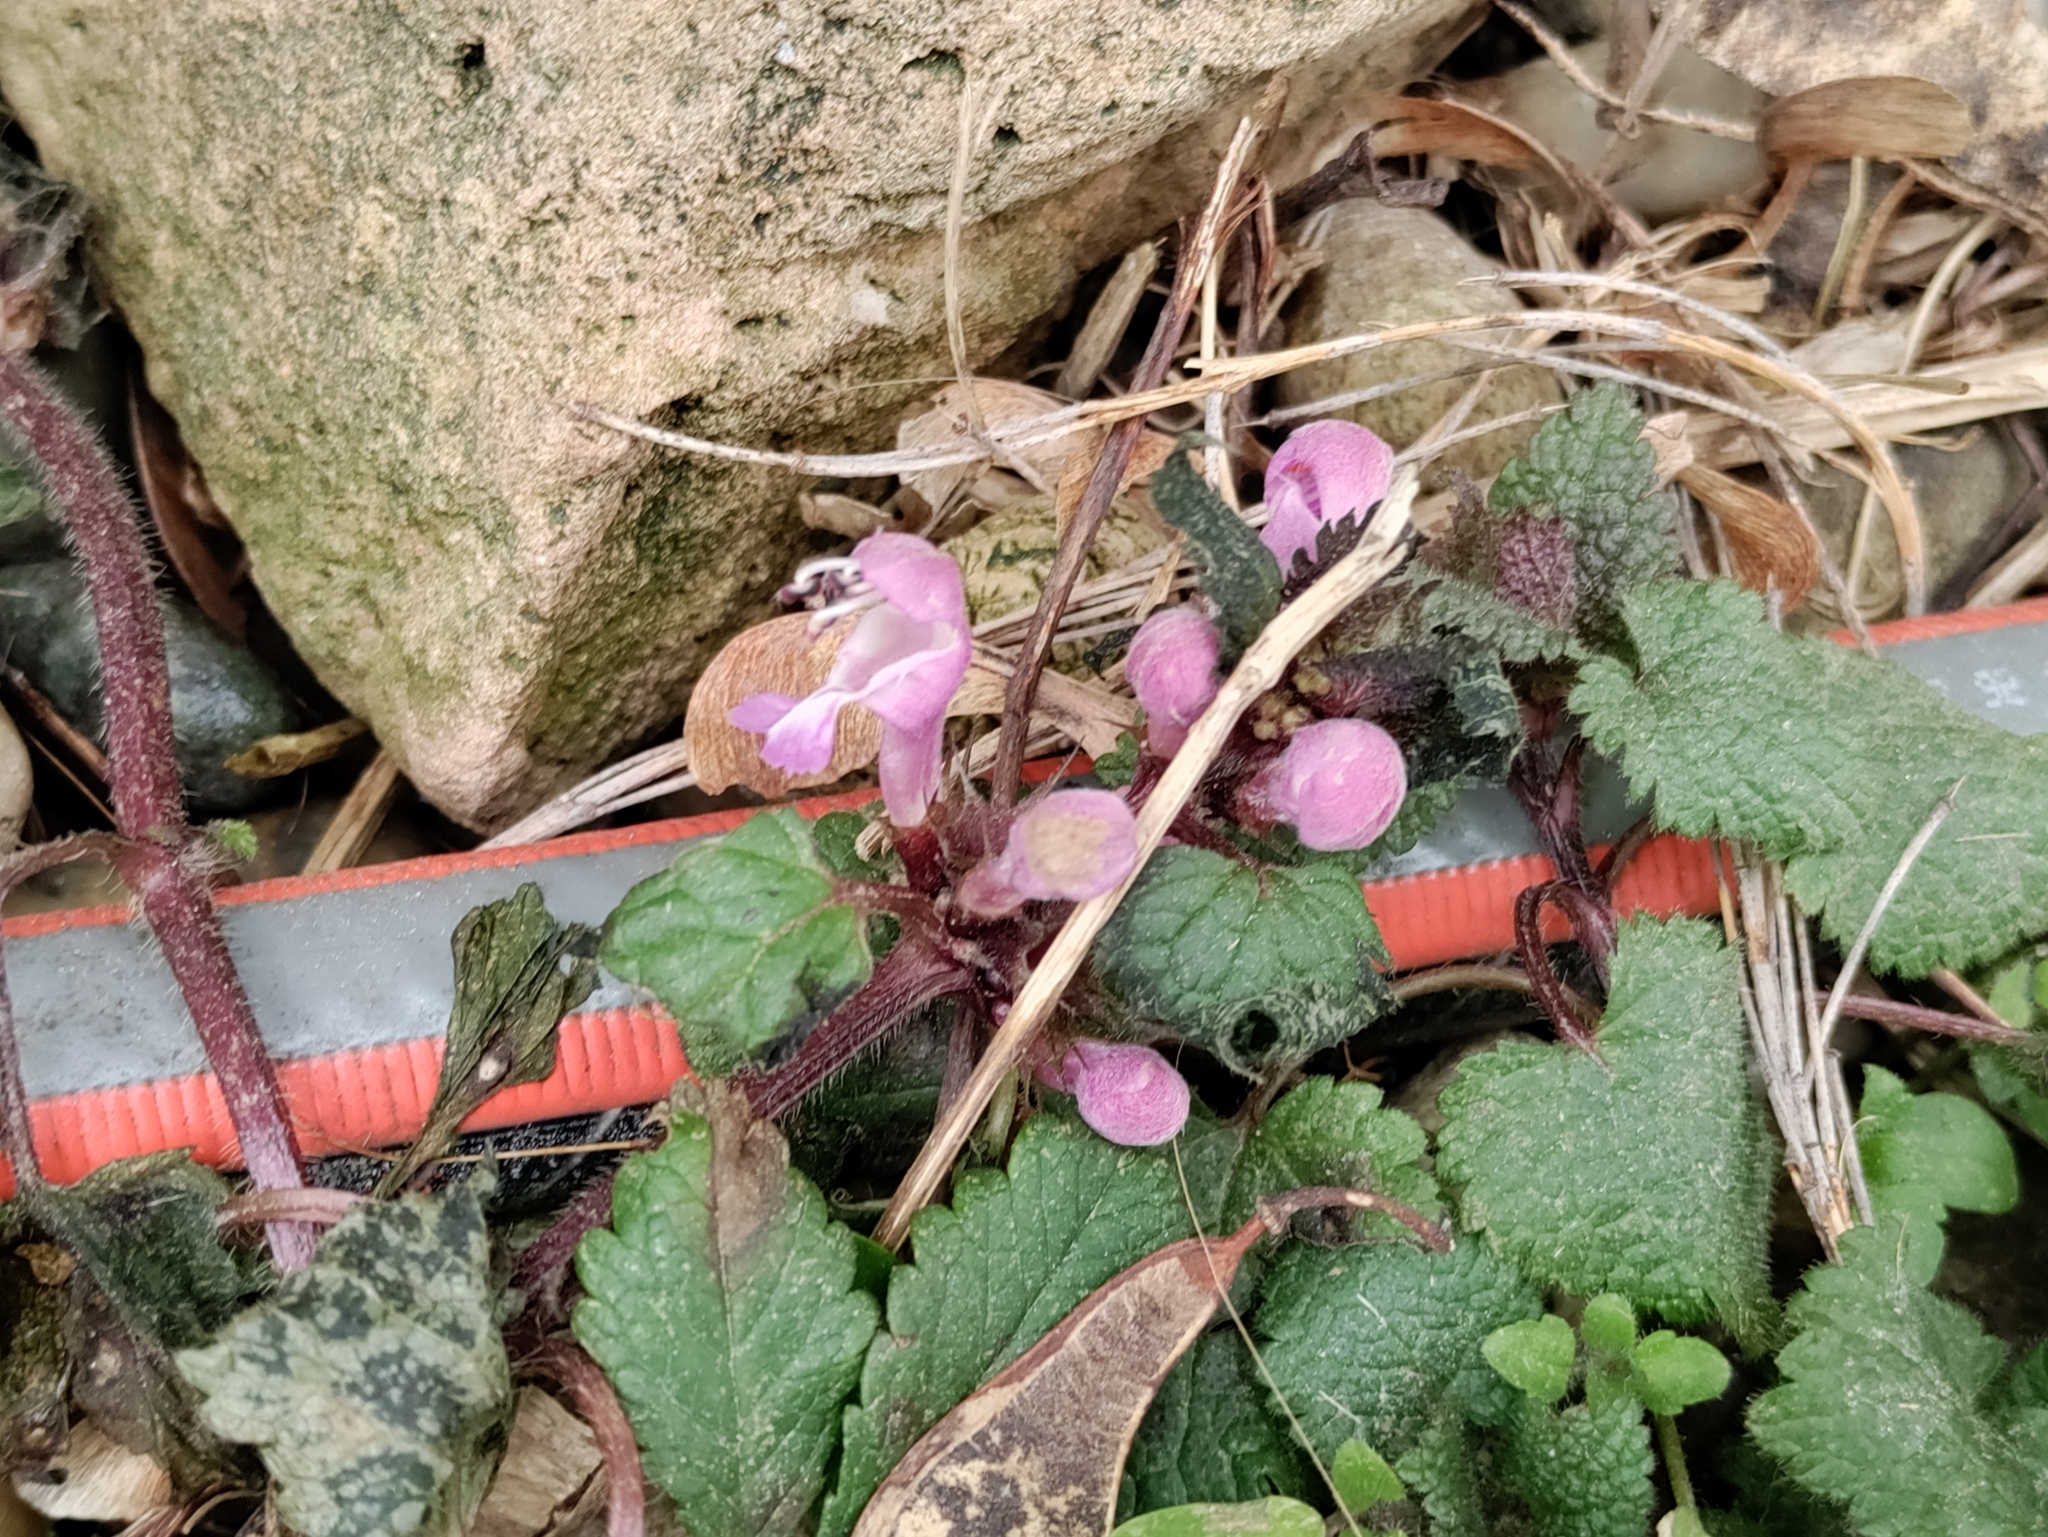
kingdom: Plantae
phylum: Tracheophyta
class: Magnoliopsida
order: Lamiales
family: Lamiaceae
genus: Lamium
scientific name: Lamium maculatum
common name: Spotted dead-nettle
